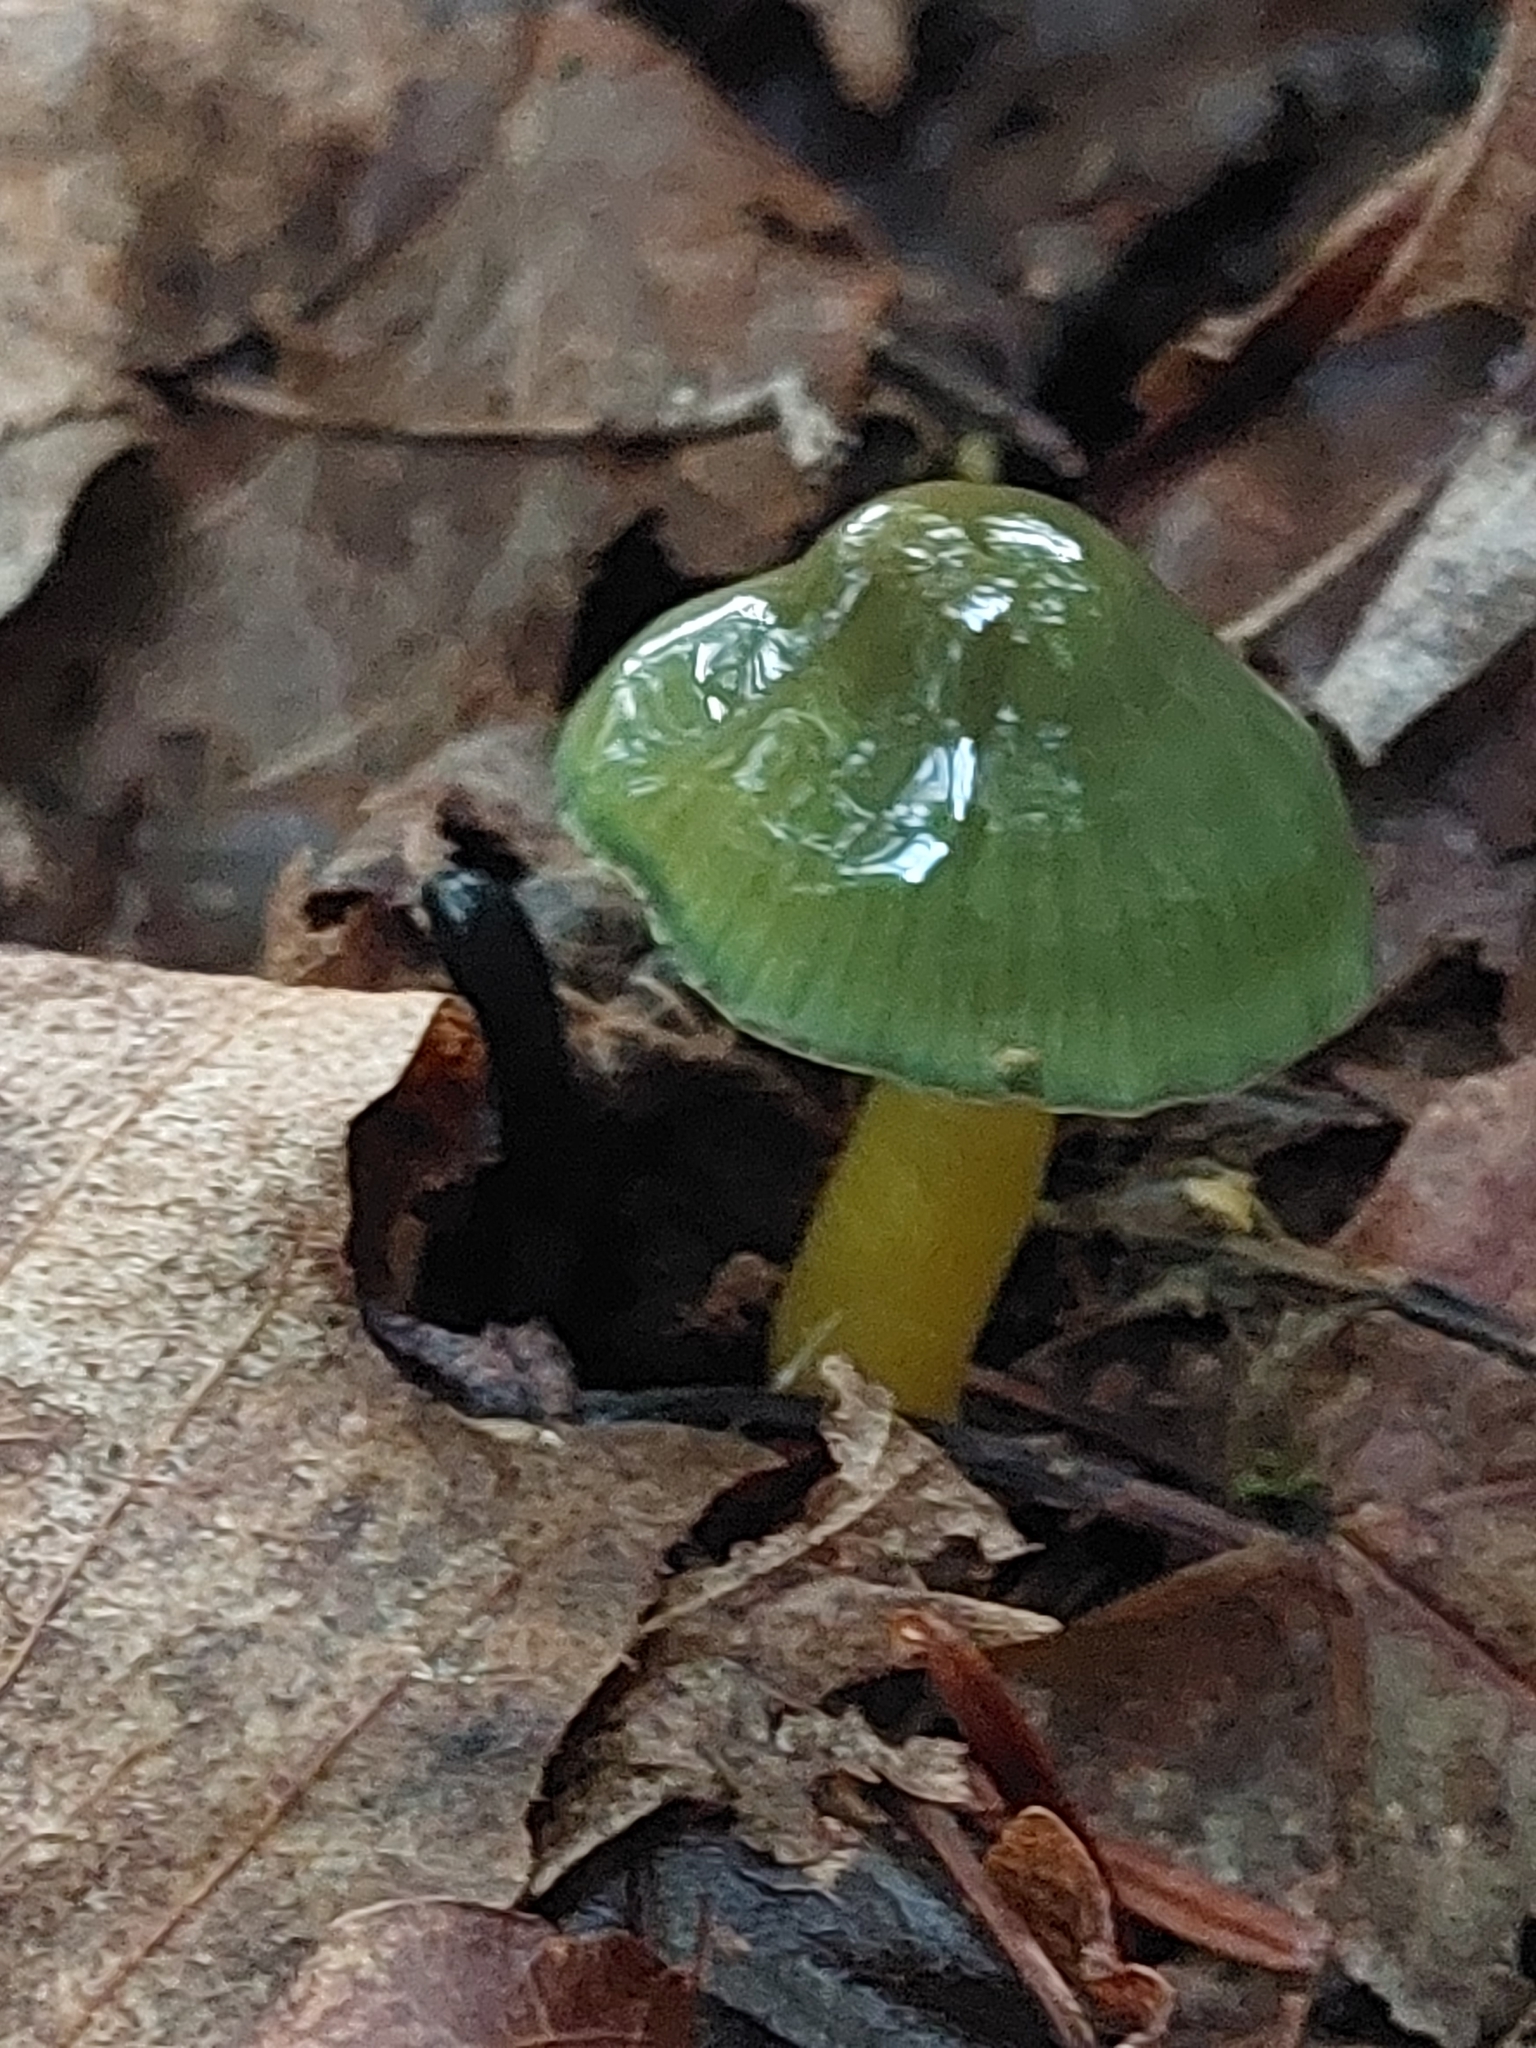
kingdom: Fungi
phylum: Basidiomycota
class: Agaricomycetes
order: Agaricales
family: Hygrophoraceae
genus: Gliophorus
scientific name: Gliophorus psittacinus
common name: Parrot wax-cap
